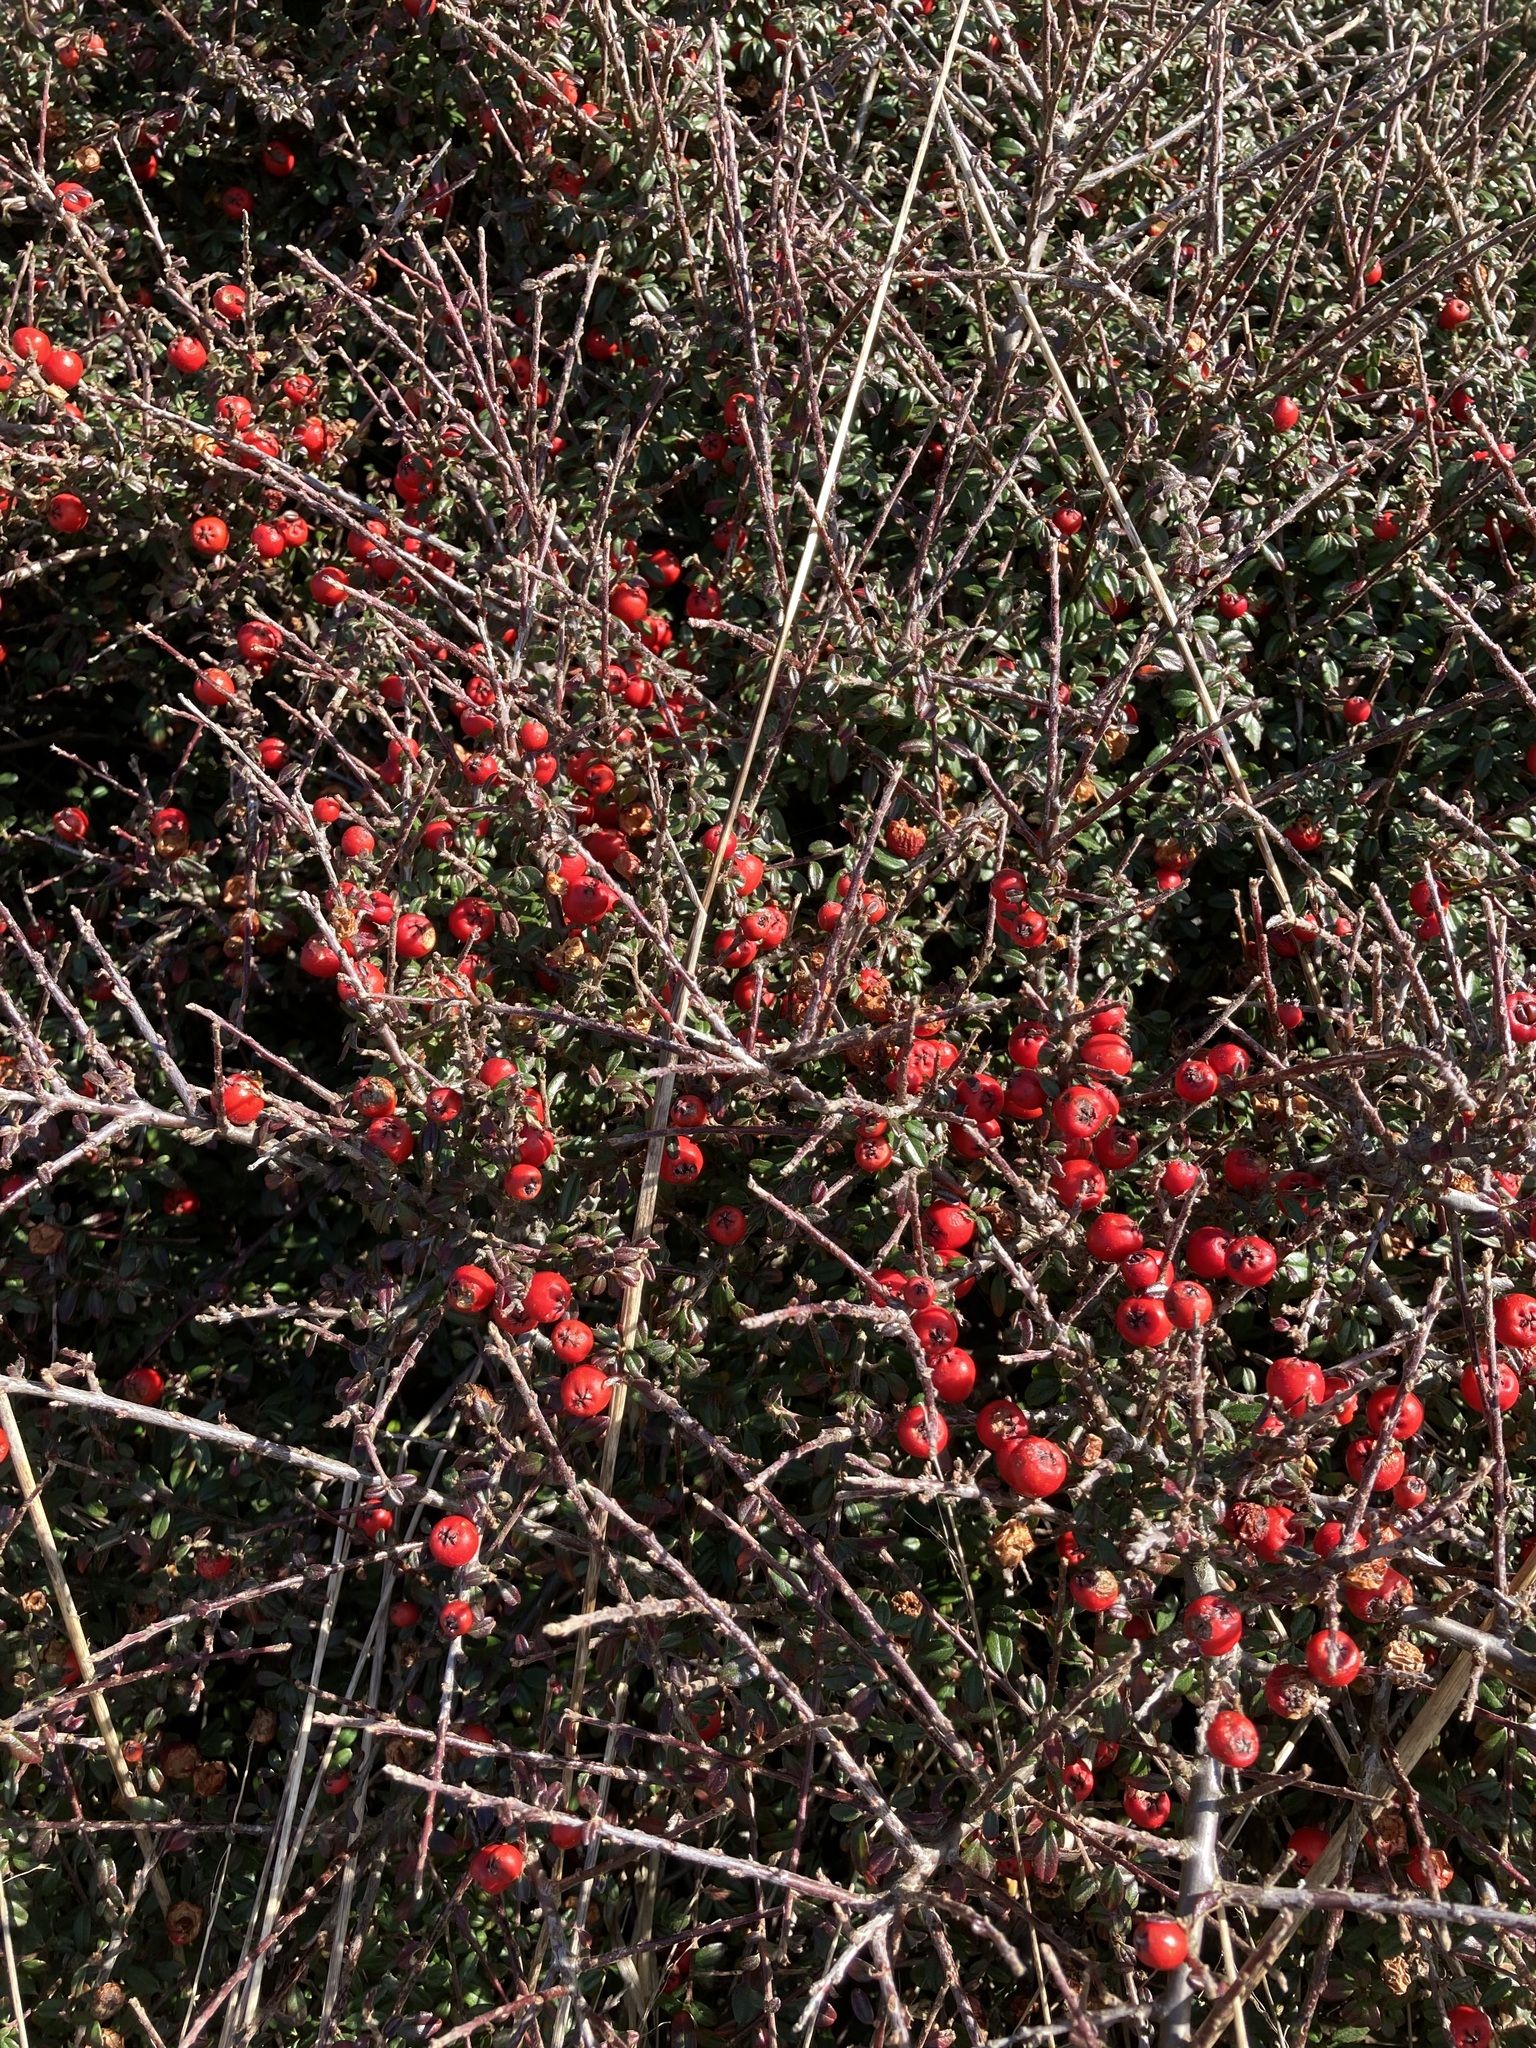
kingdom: Plantae
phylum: Tracheophyta
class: Magnoliopsida
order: Rosales
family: Rosaceae
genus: Cotoneaster
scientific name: Cotoneaster integrifolius
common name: Entire-leaved cotoneaster
